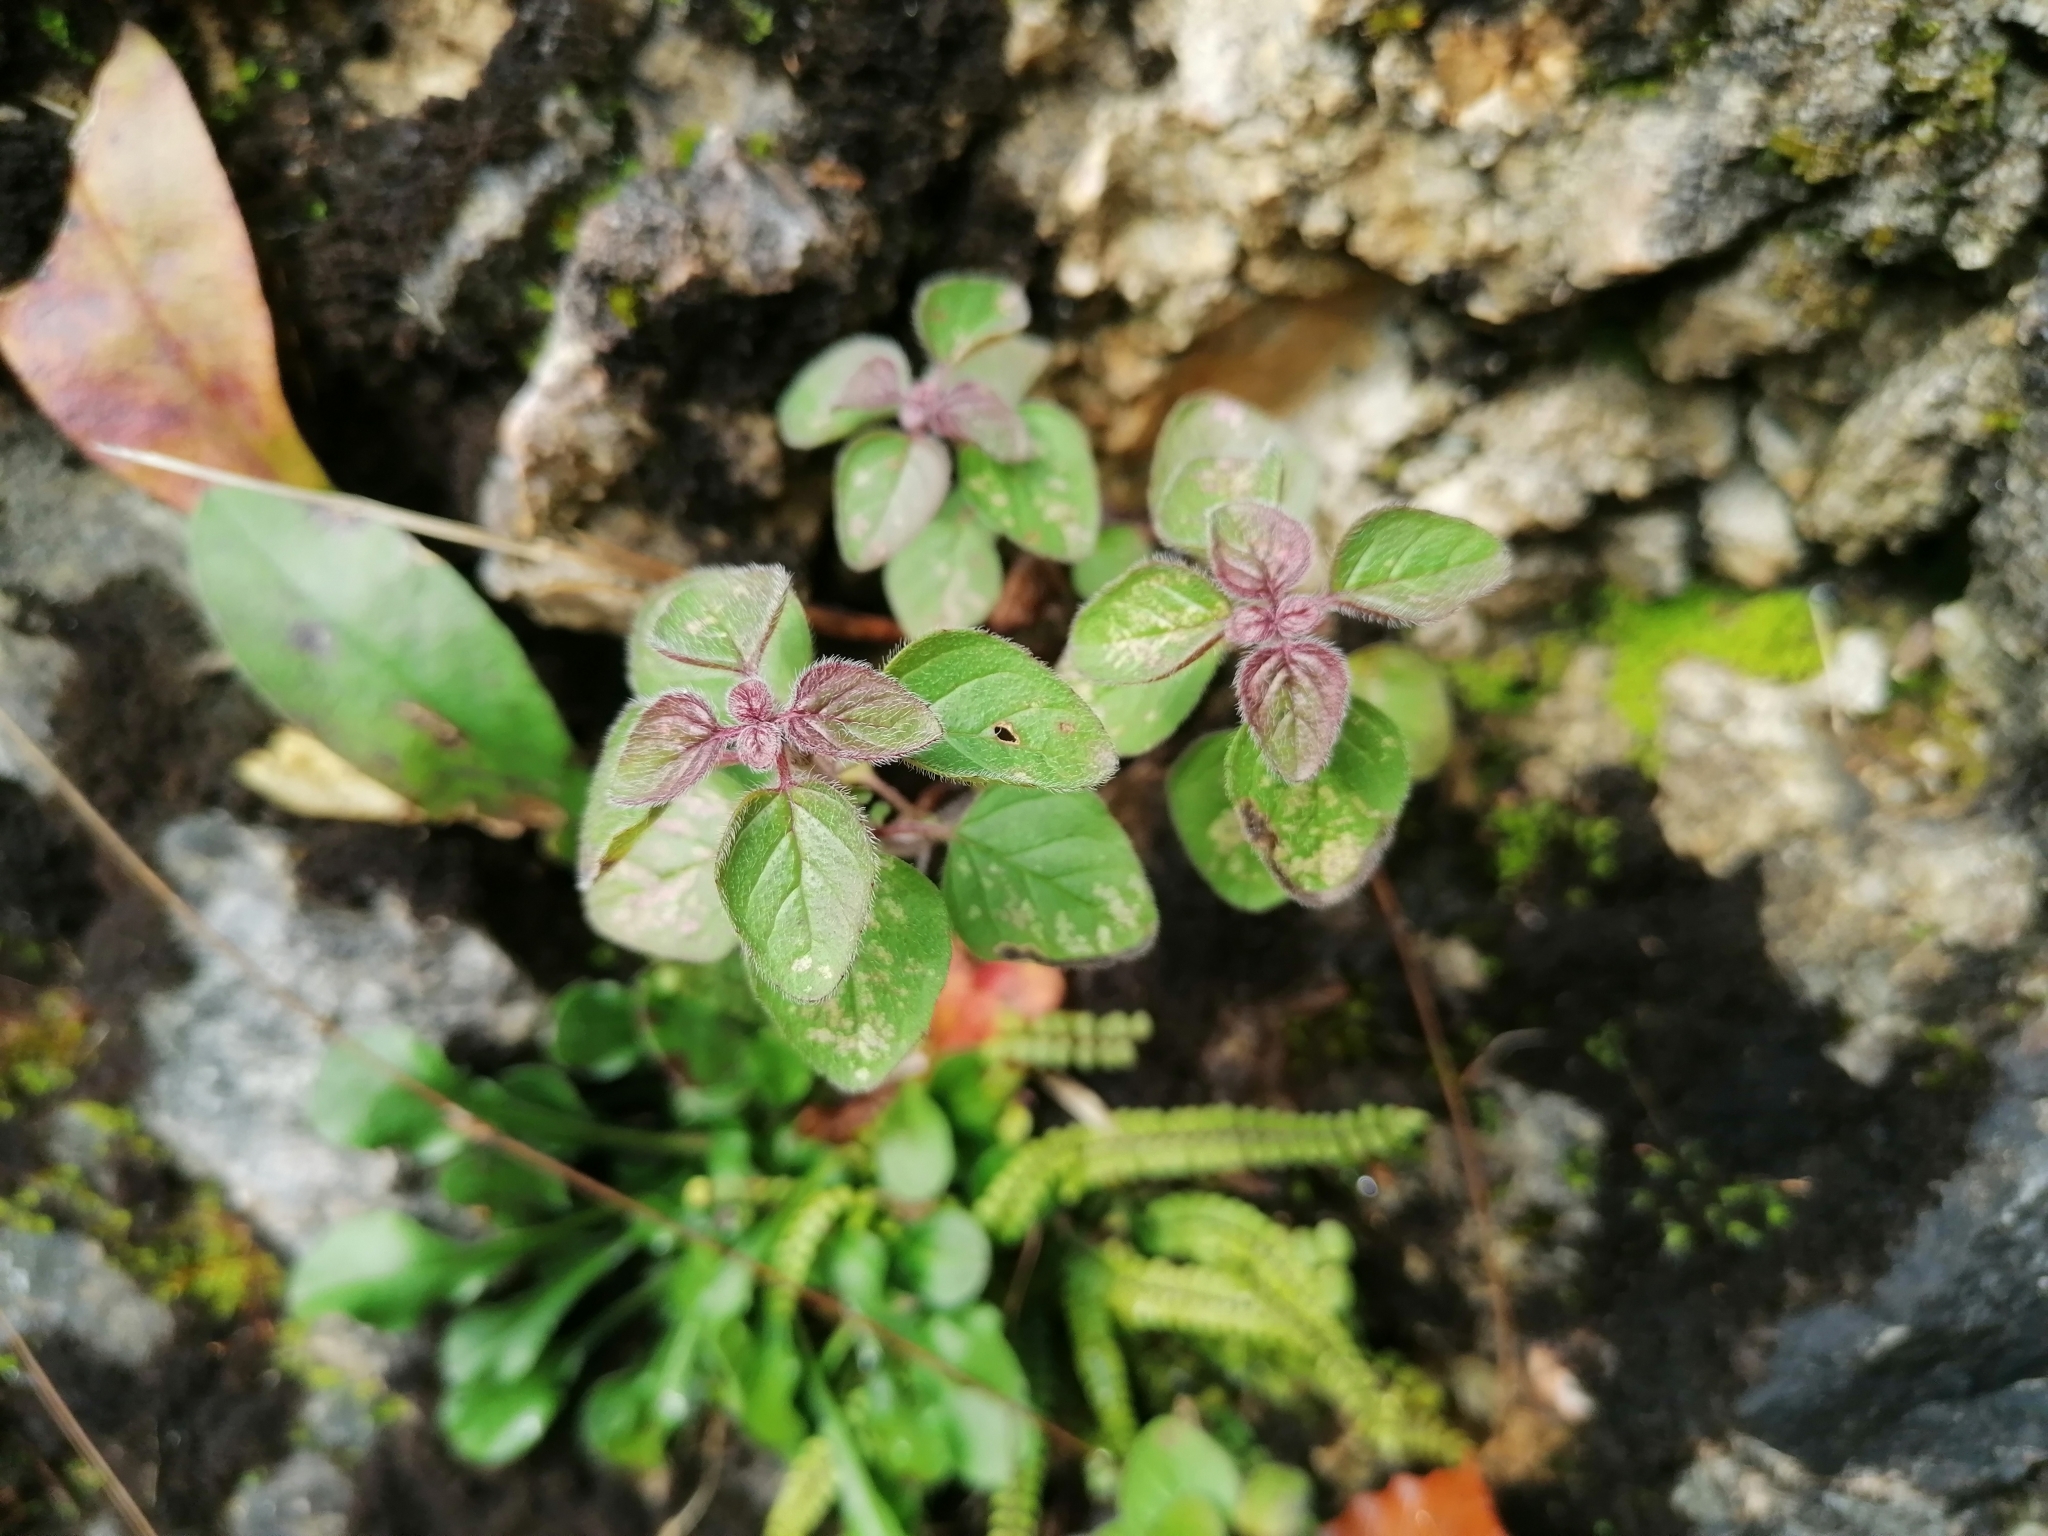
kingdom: Plantae
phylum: Tracheophyta
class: Magnoliopsida
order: Lamiales
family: Lamiaceae
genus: Origanum
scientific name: Origanum vulgare
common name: Wild marjoram
